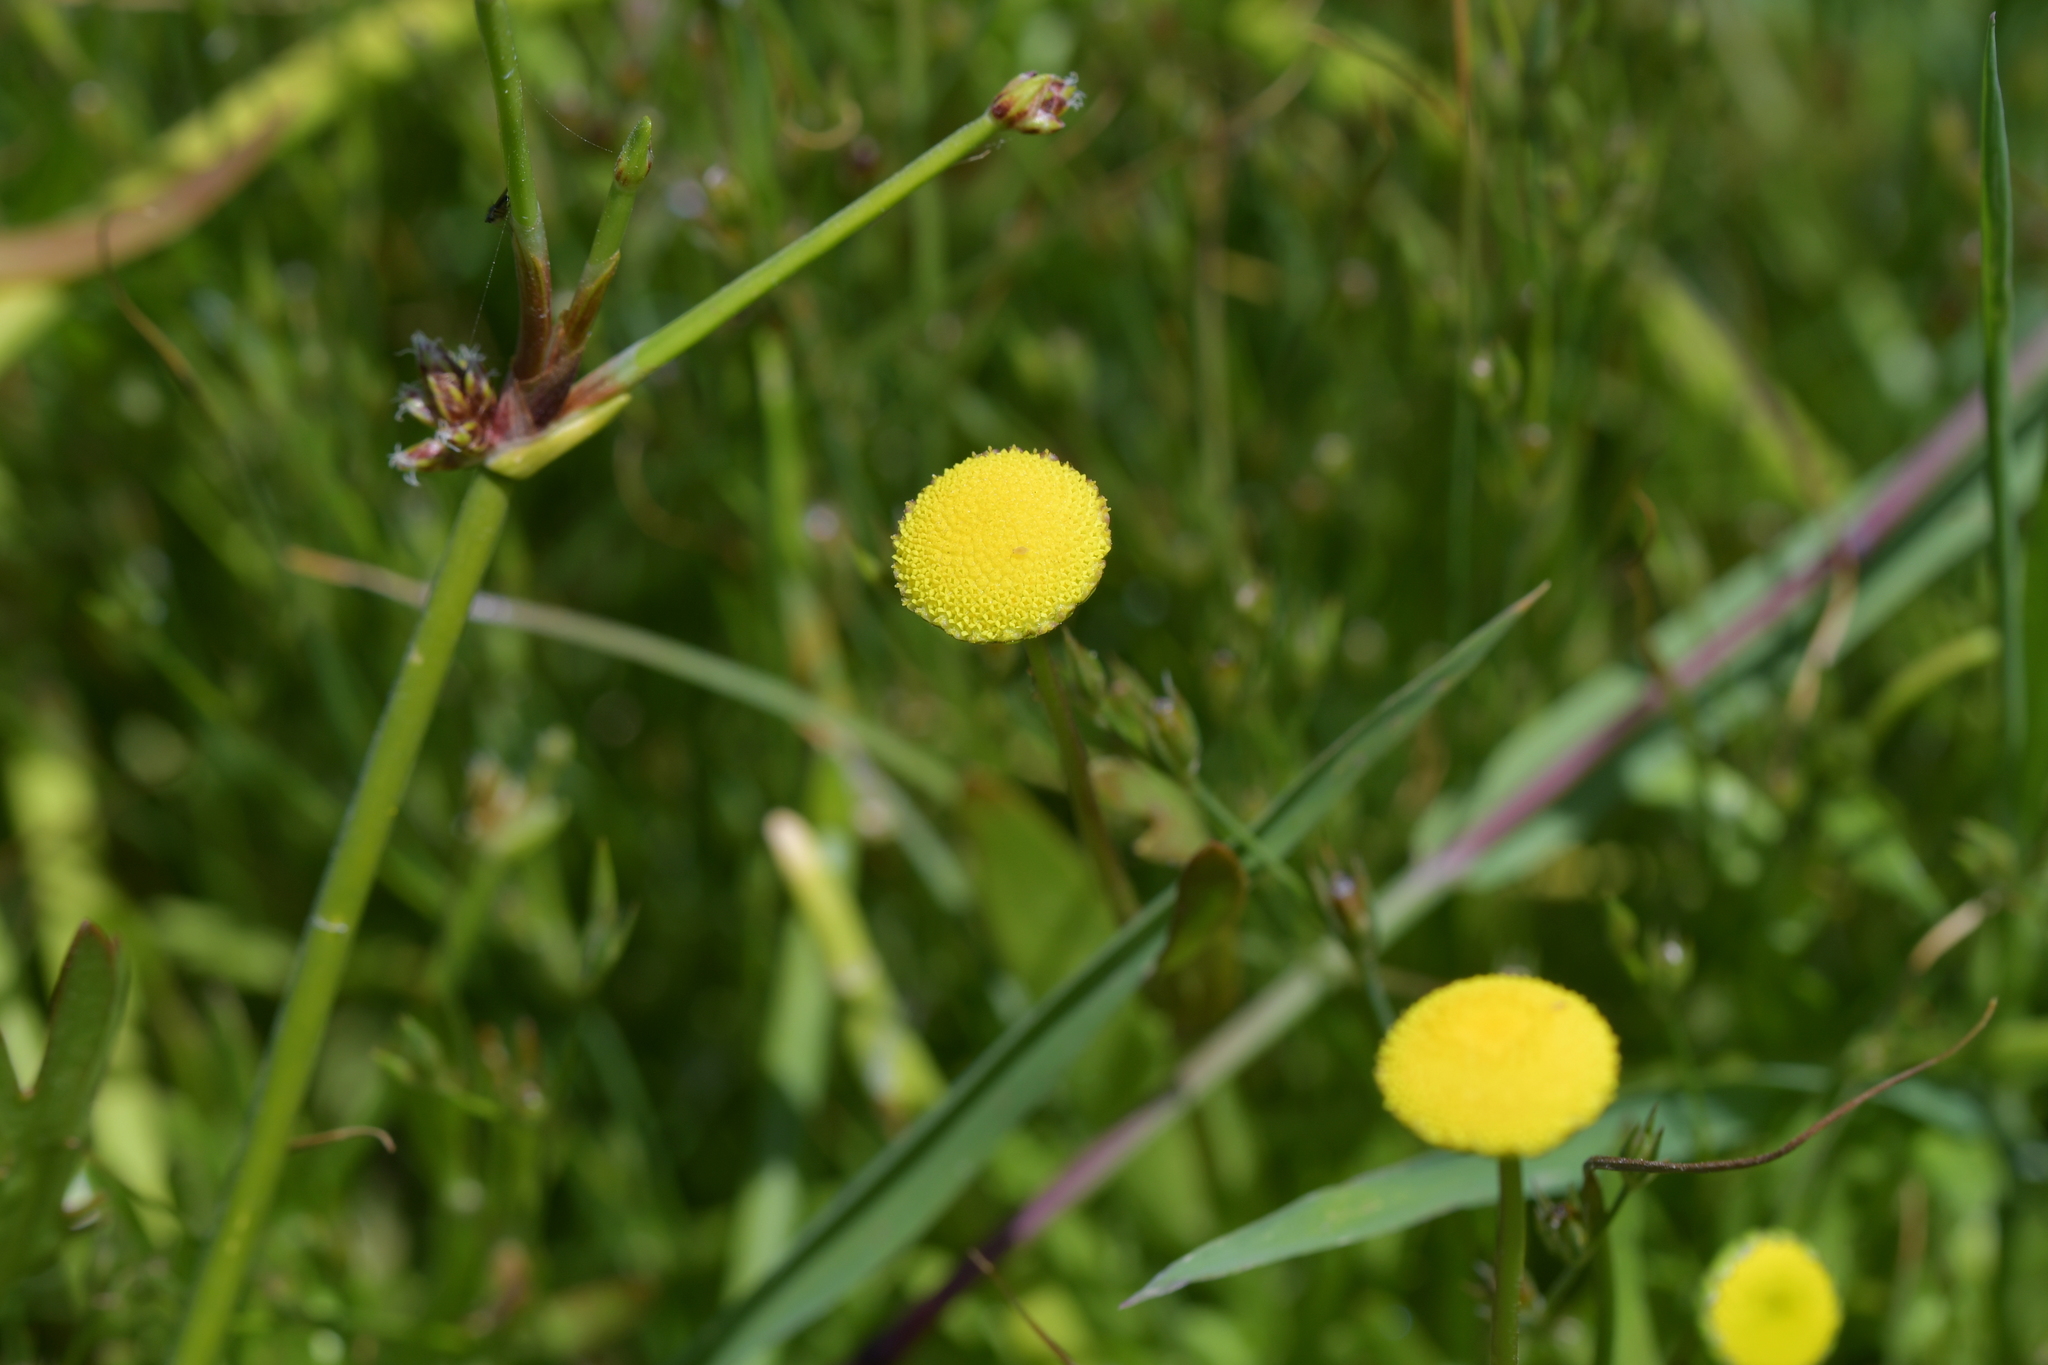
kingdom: Plantae
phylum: Tracheophyta
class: Magnoliopsida
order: Asterales
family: Asteraceae
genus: Cotula
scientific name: Cotula coronopifolia
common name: Buttonweed
